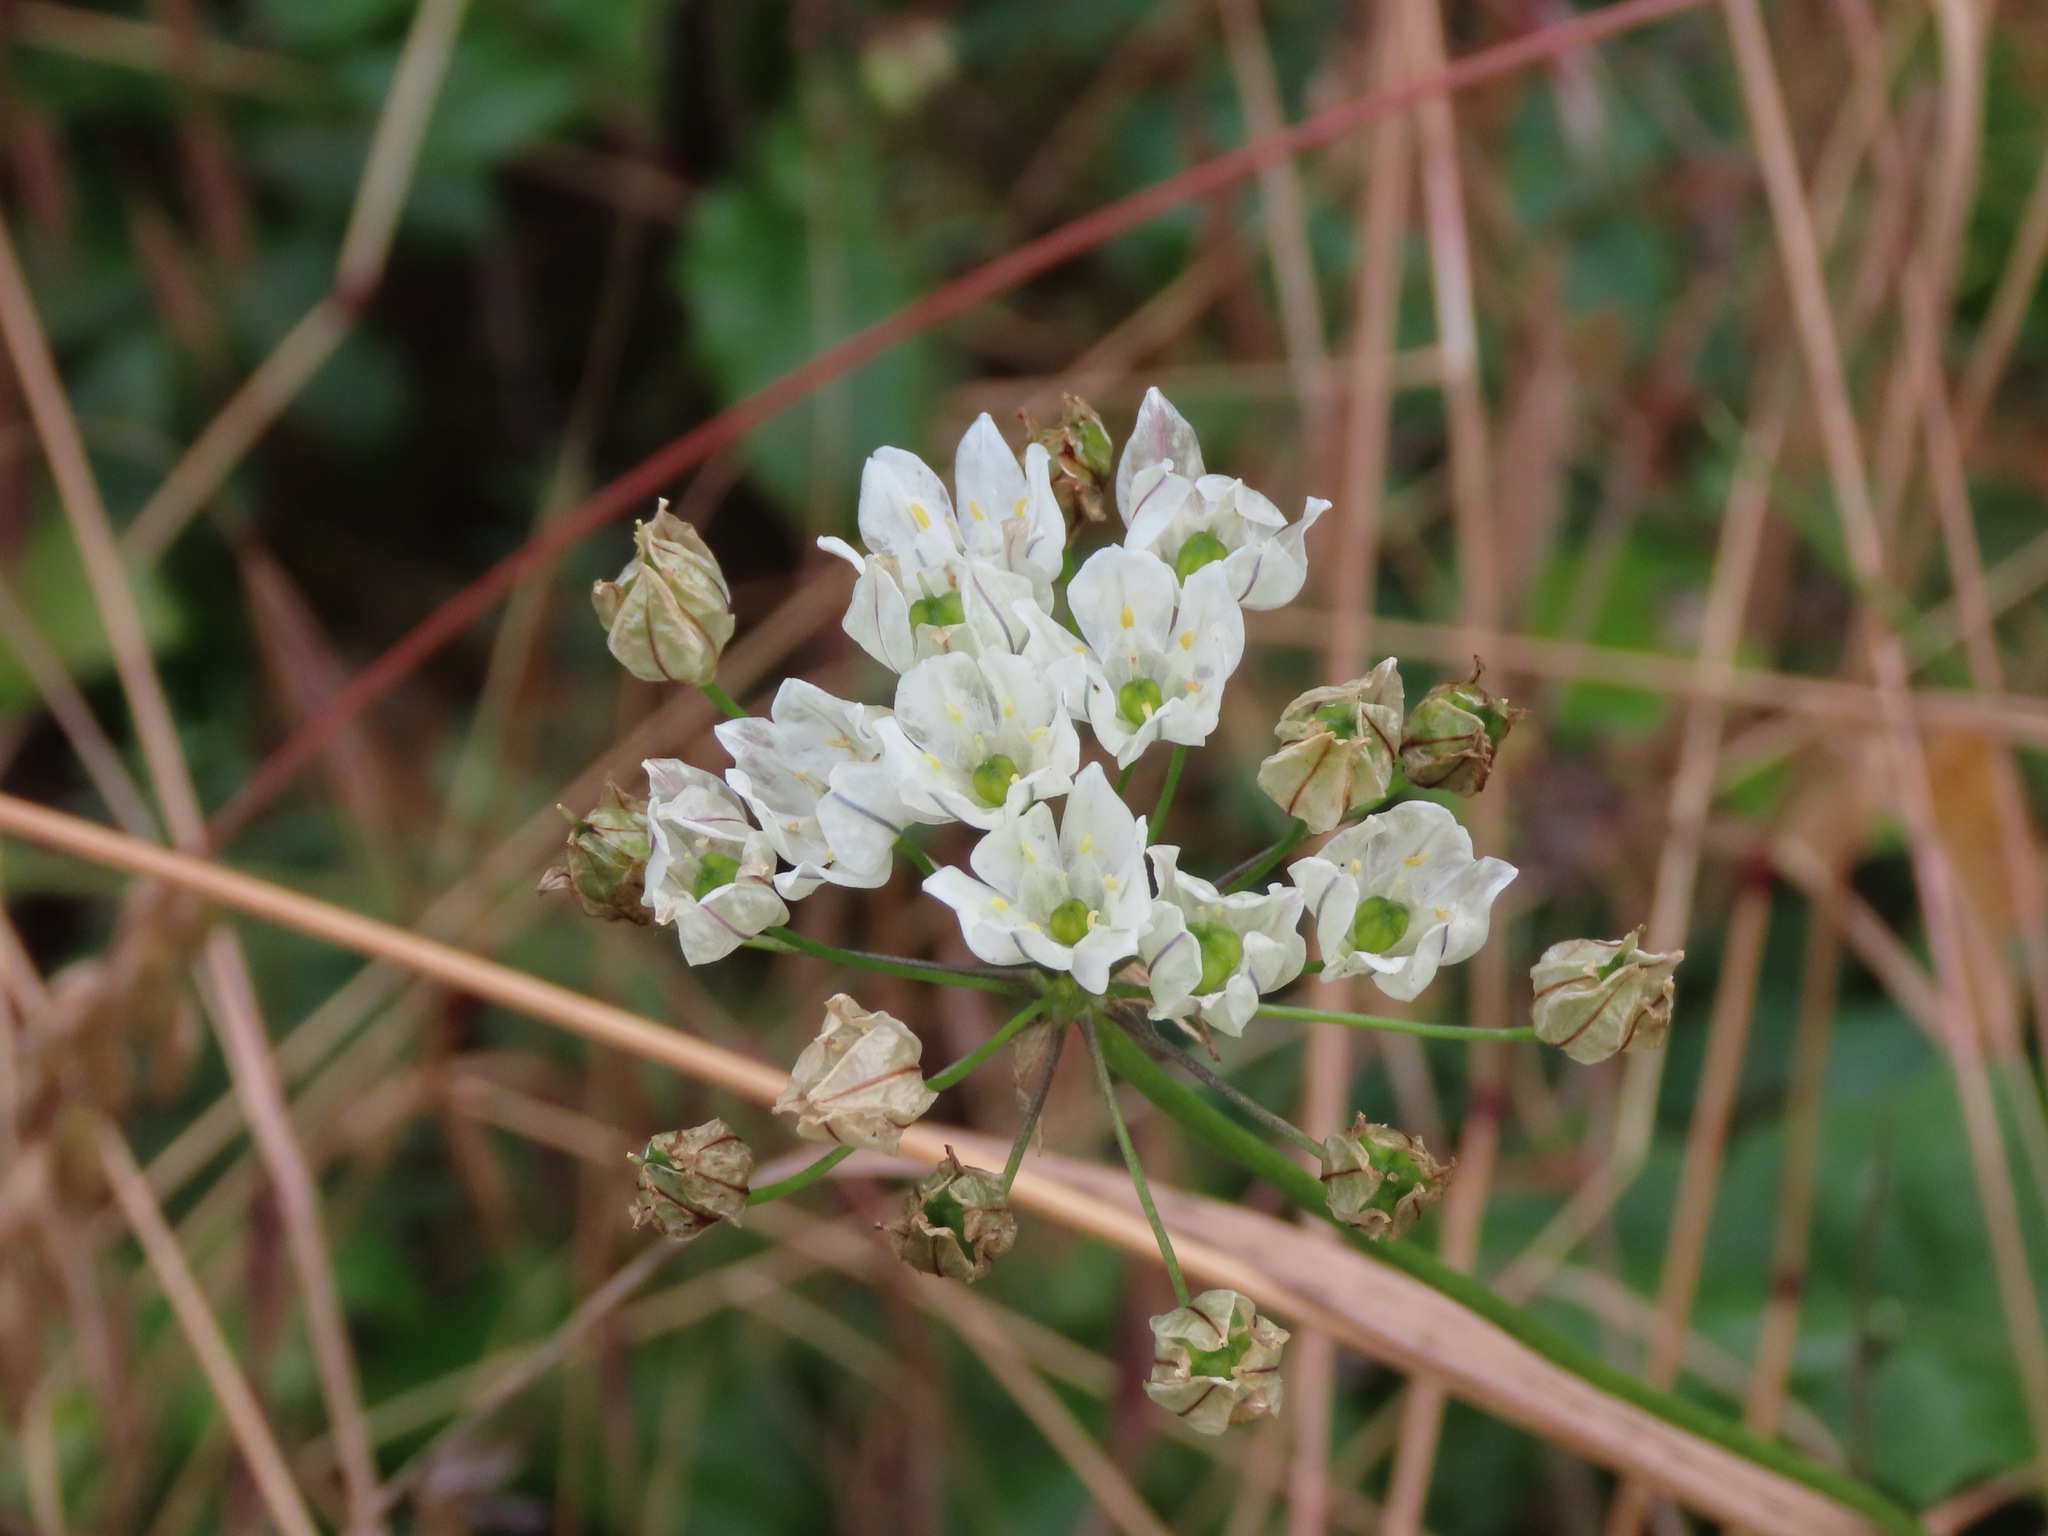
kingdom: Plantae
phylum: Tracheophyta
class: Liliopsida
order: Asparagales
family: Asparagaceae
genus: Triteleia
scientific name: Triteleia hyacinthina
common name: White brodiaea
